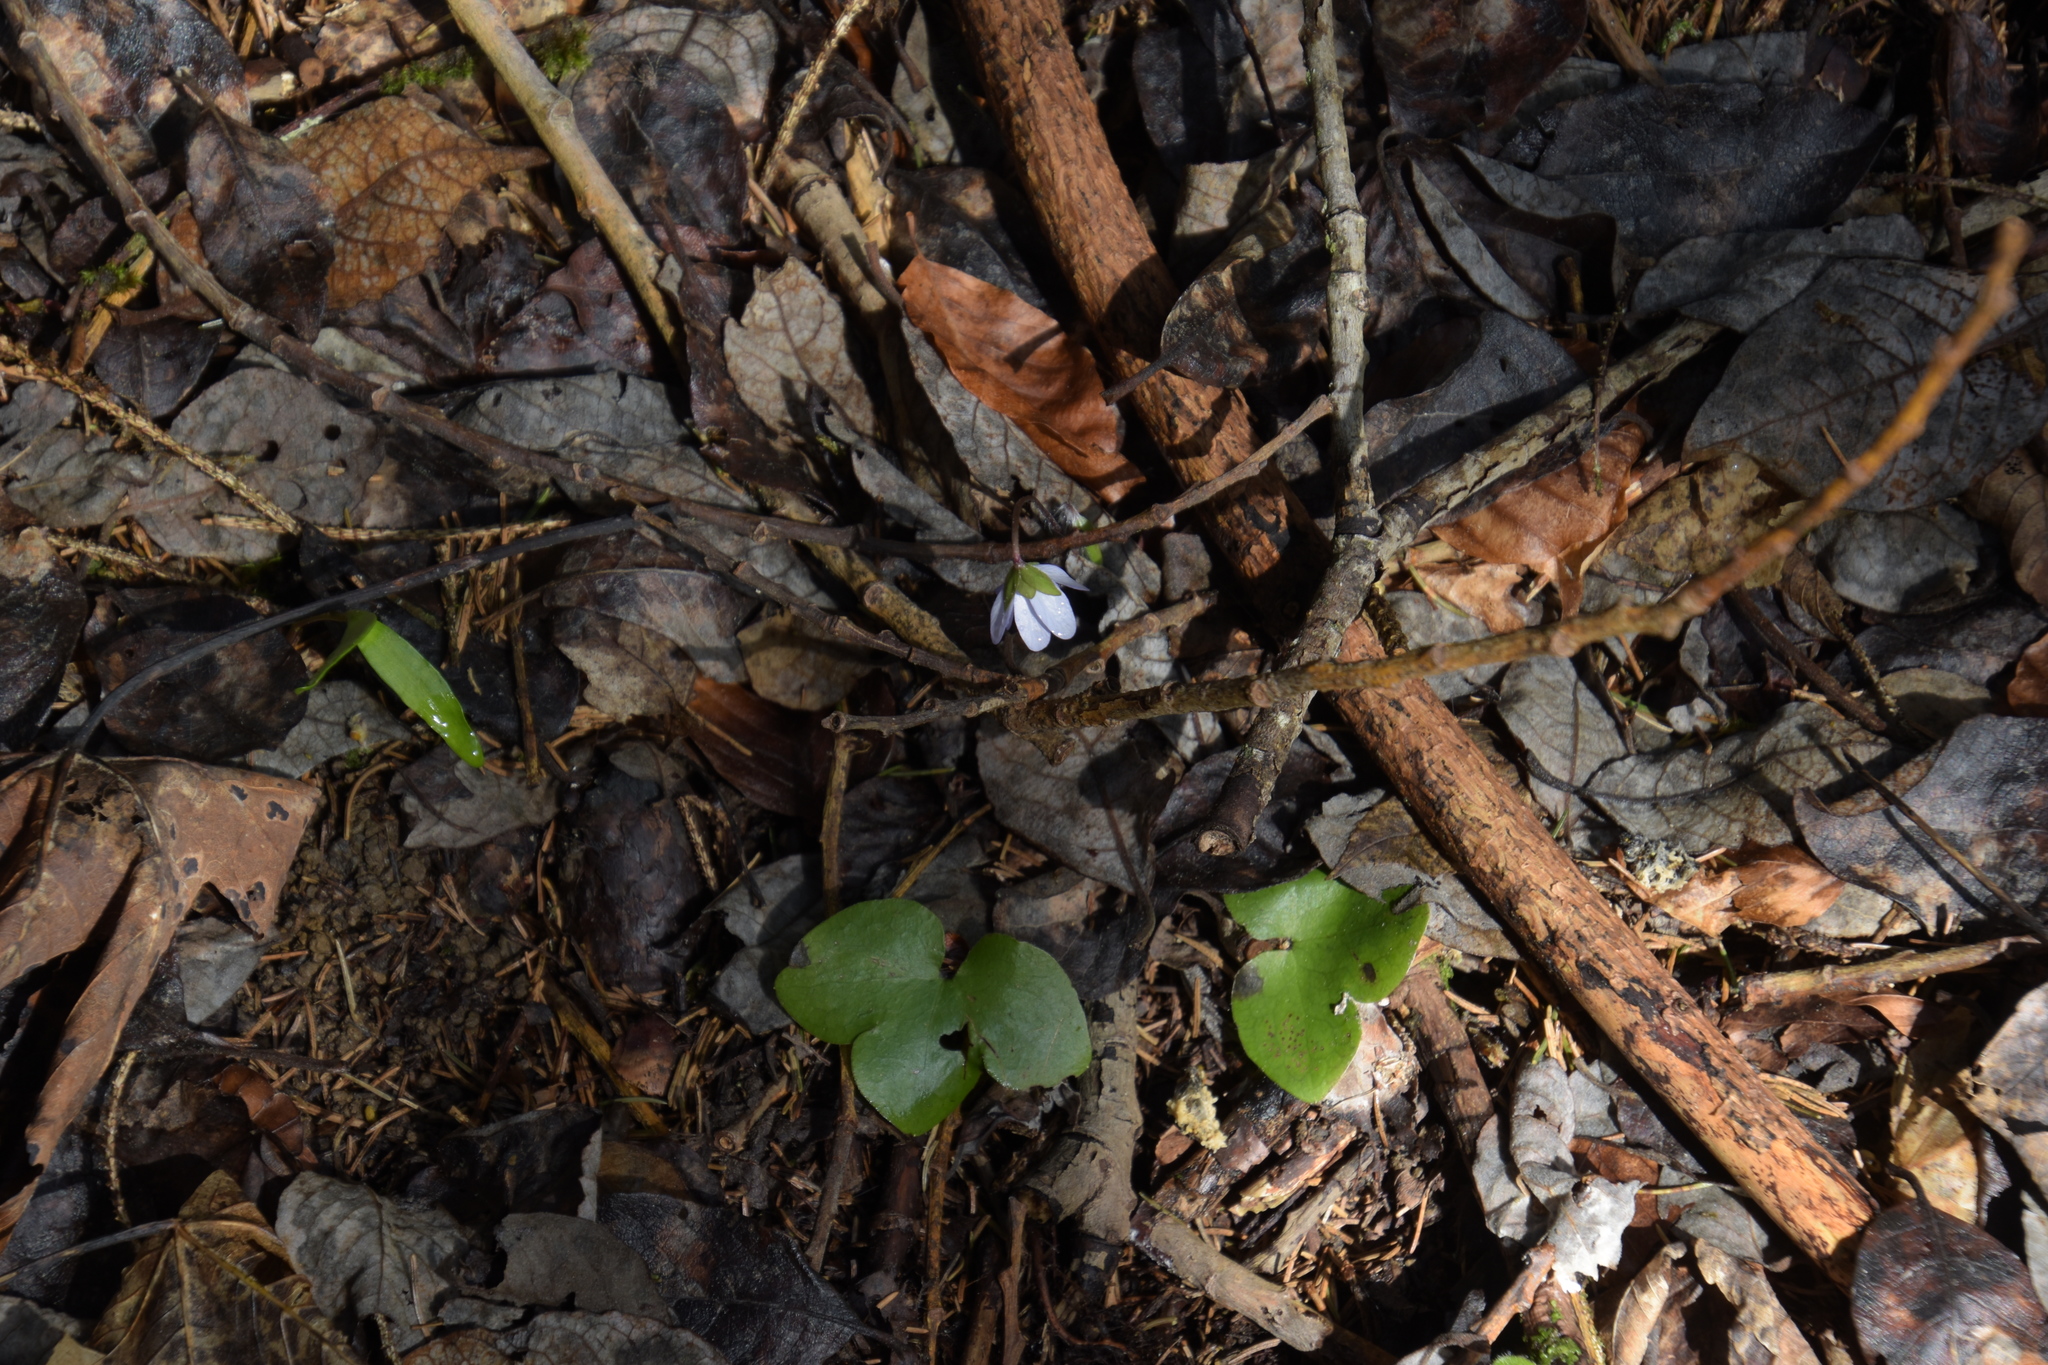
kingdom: Plantae
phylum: Tracheophyta
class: Magnoliopsida
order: Ranunculales
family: Ranunculaceae
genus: Hepatica
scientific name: Hepatica nobilis
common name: Liverleaf
